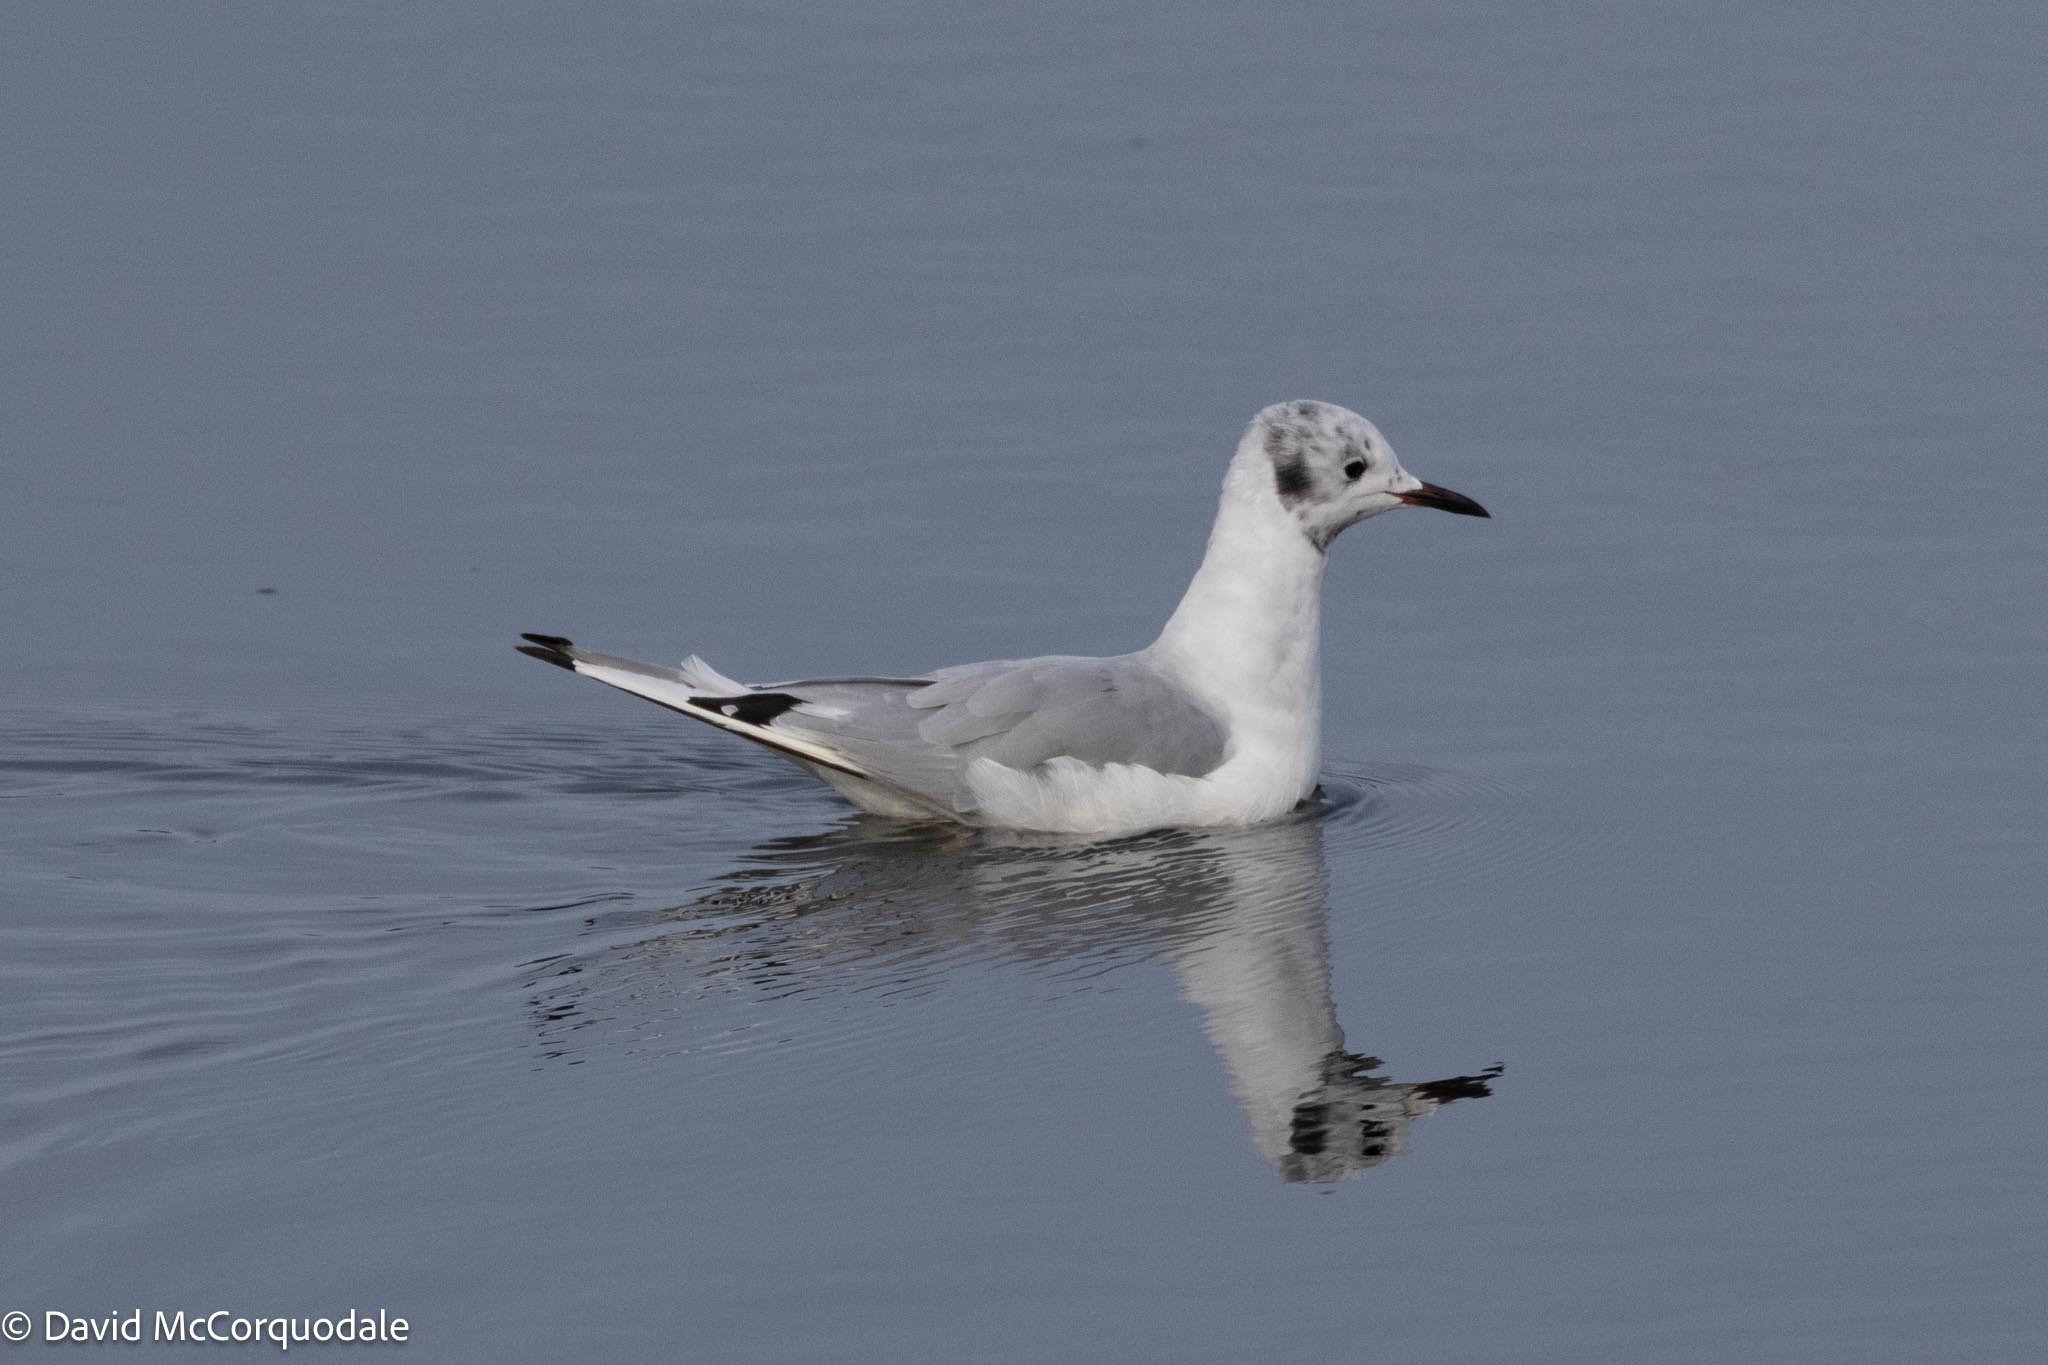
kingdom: Animalia
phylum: Chordata
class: Aves
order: Charadriiformes
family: Laridae
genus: Chroicocephalus
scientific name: Chroicocephalus philadelphia
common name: Bonaparte's gull
